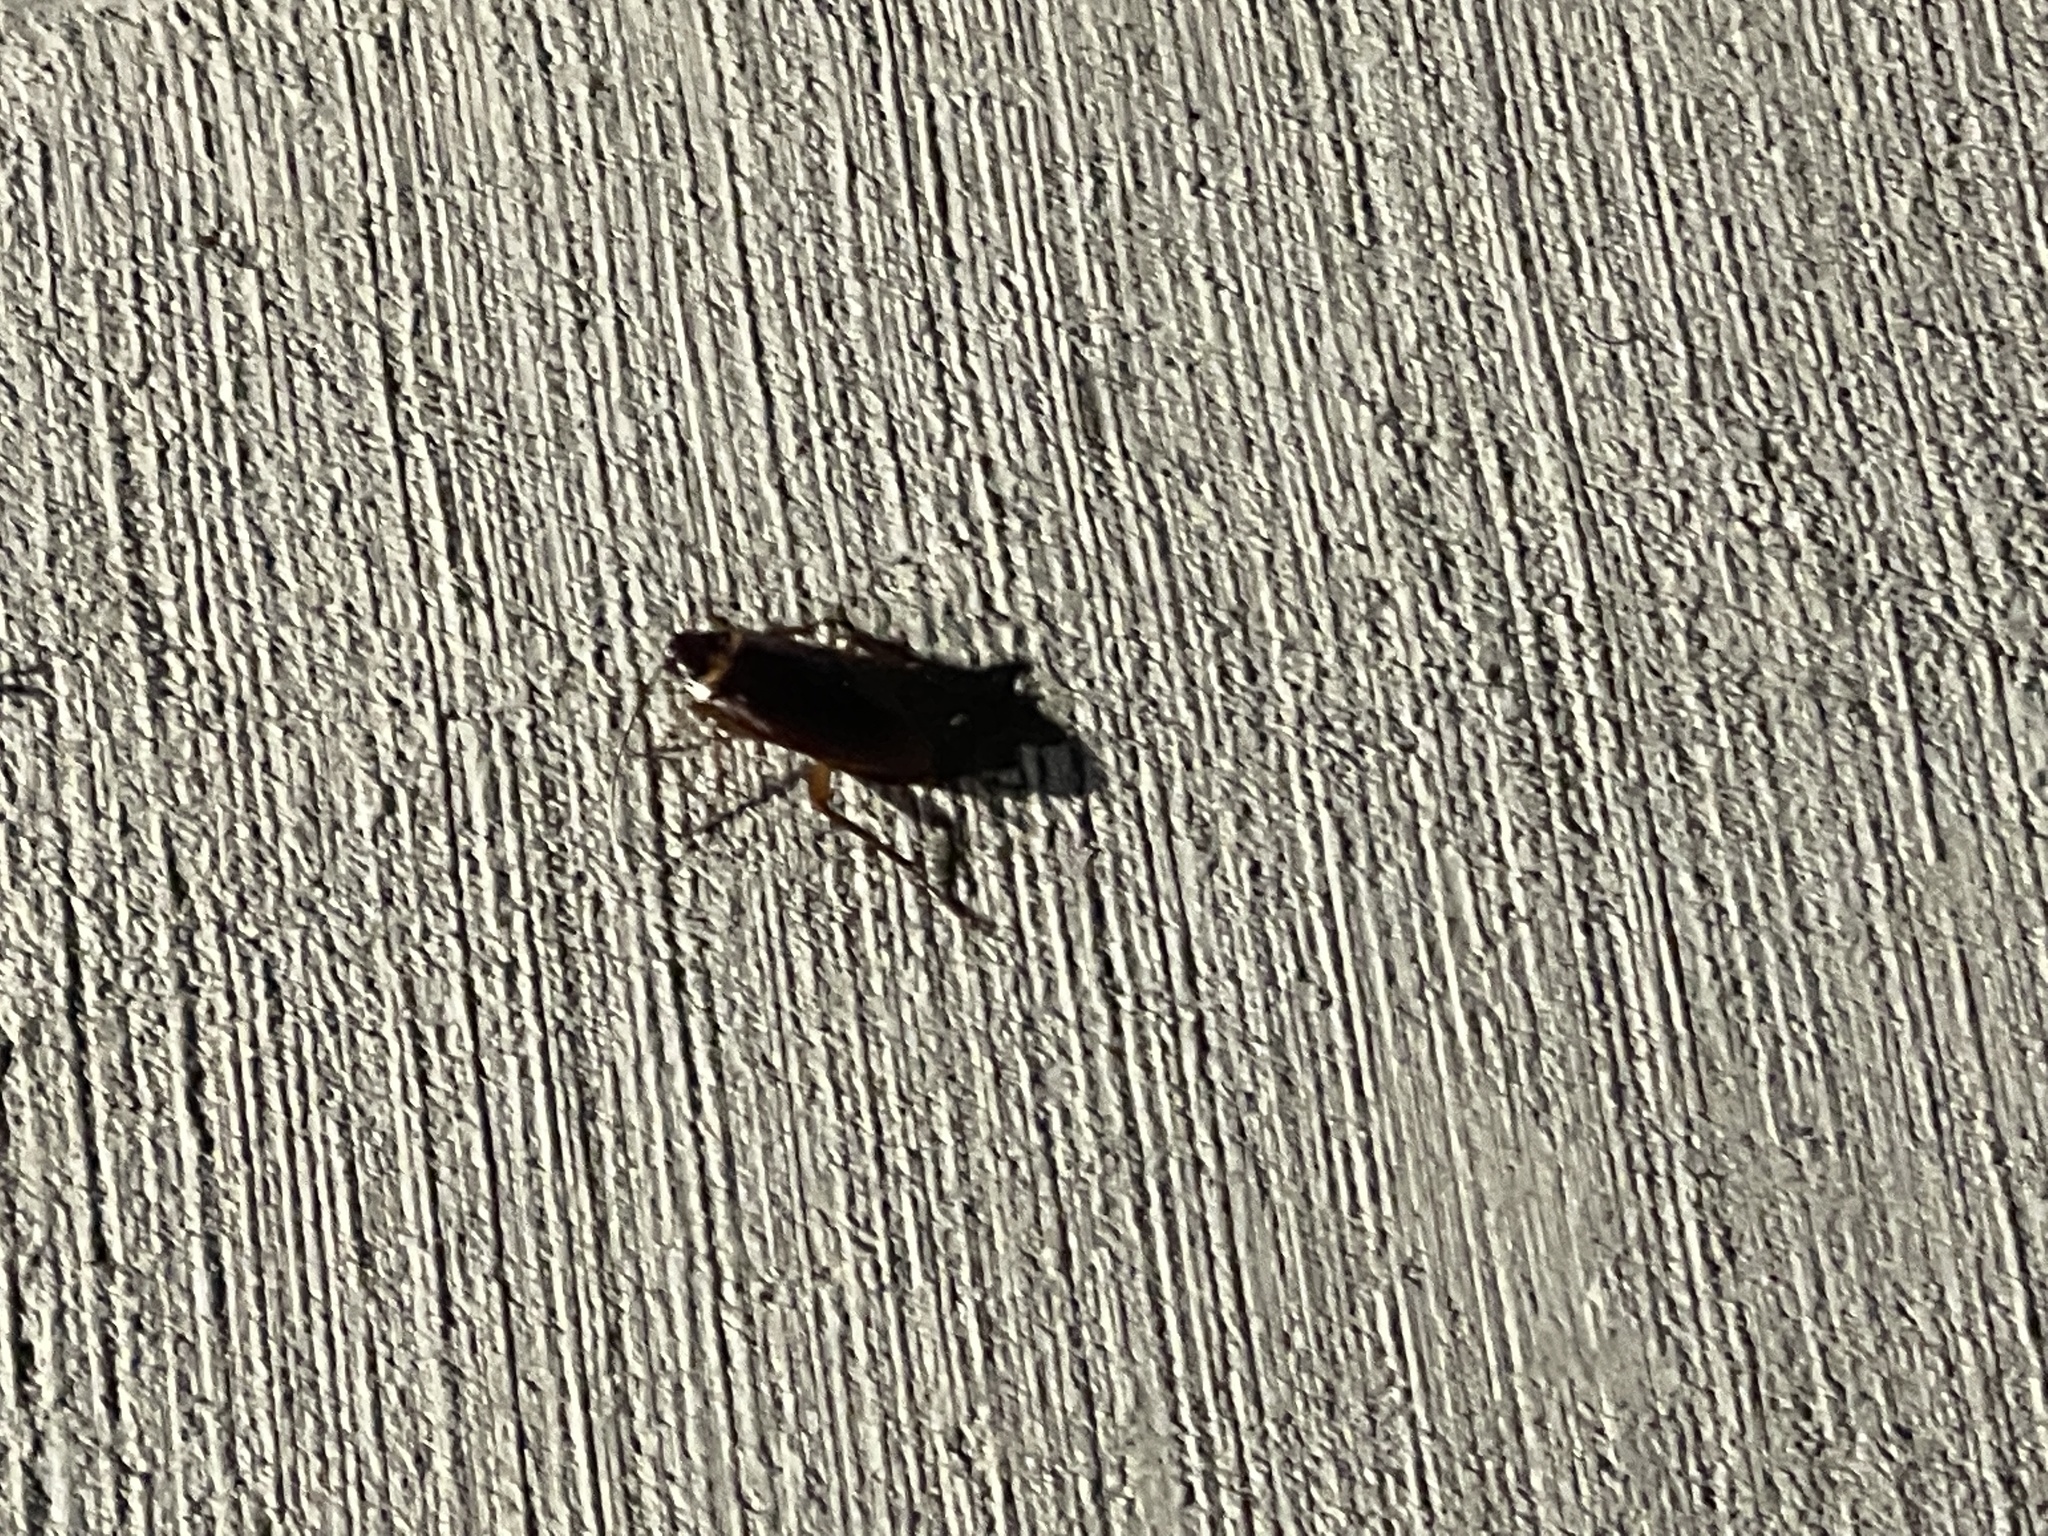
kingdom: Animalia
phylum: Arthropoda
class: Insecta
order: Blattodea
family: Blattidae
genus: Periplaneta
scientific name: Periplaneta americana
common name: American cockroach
